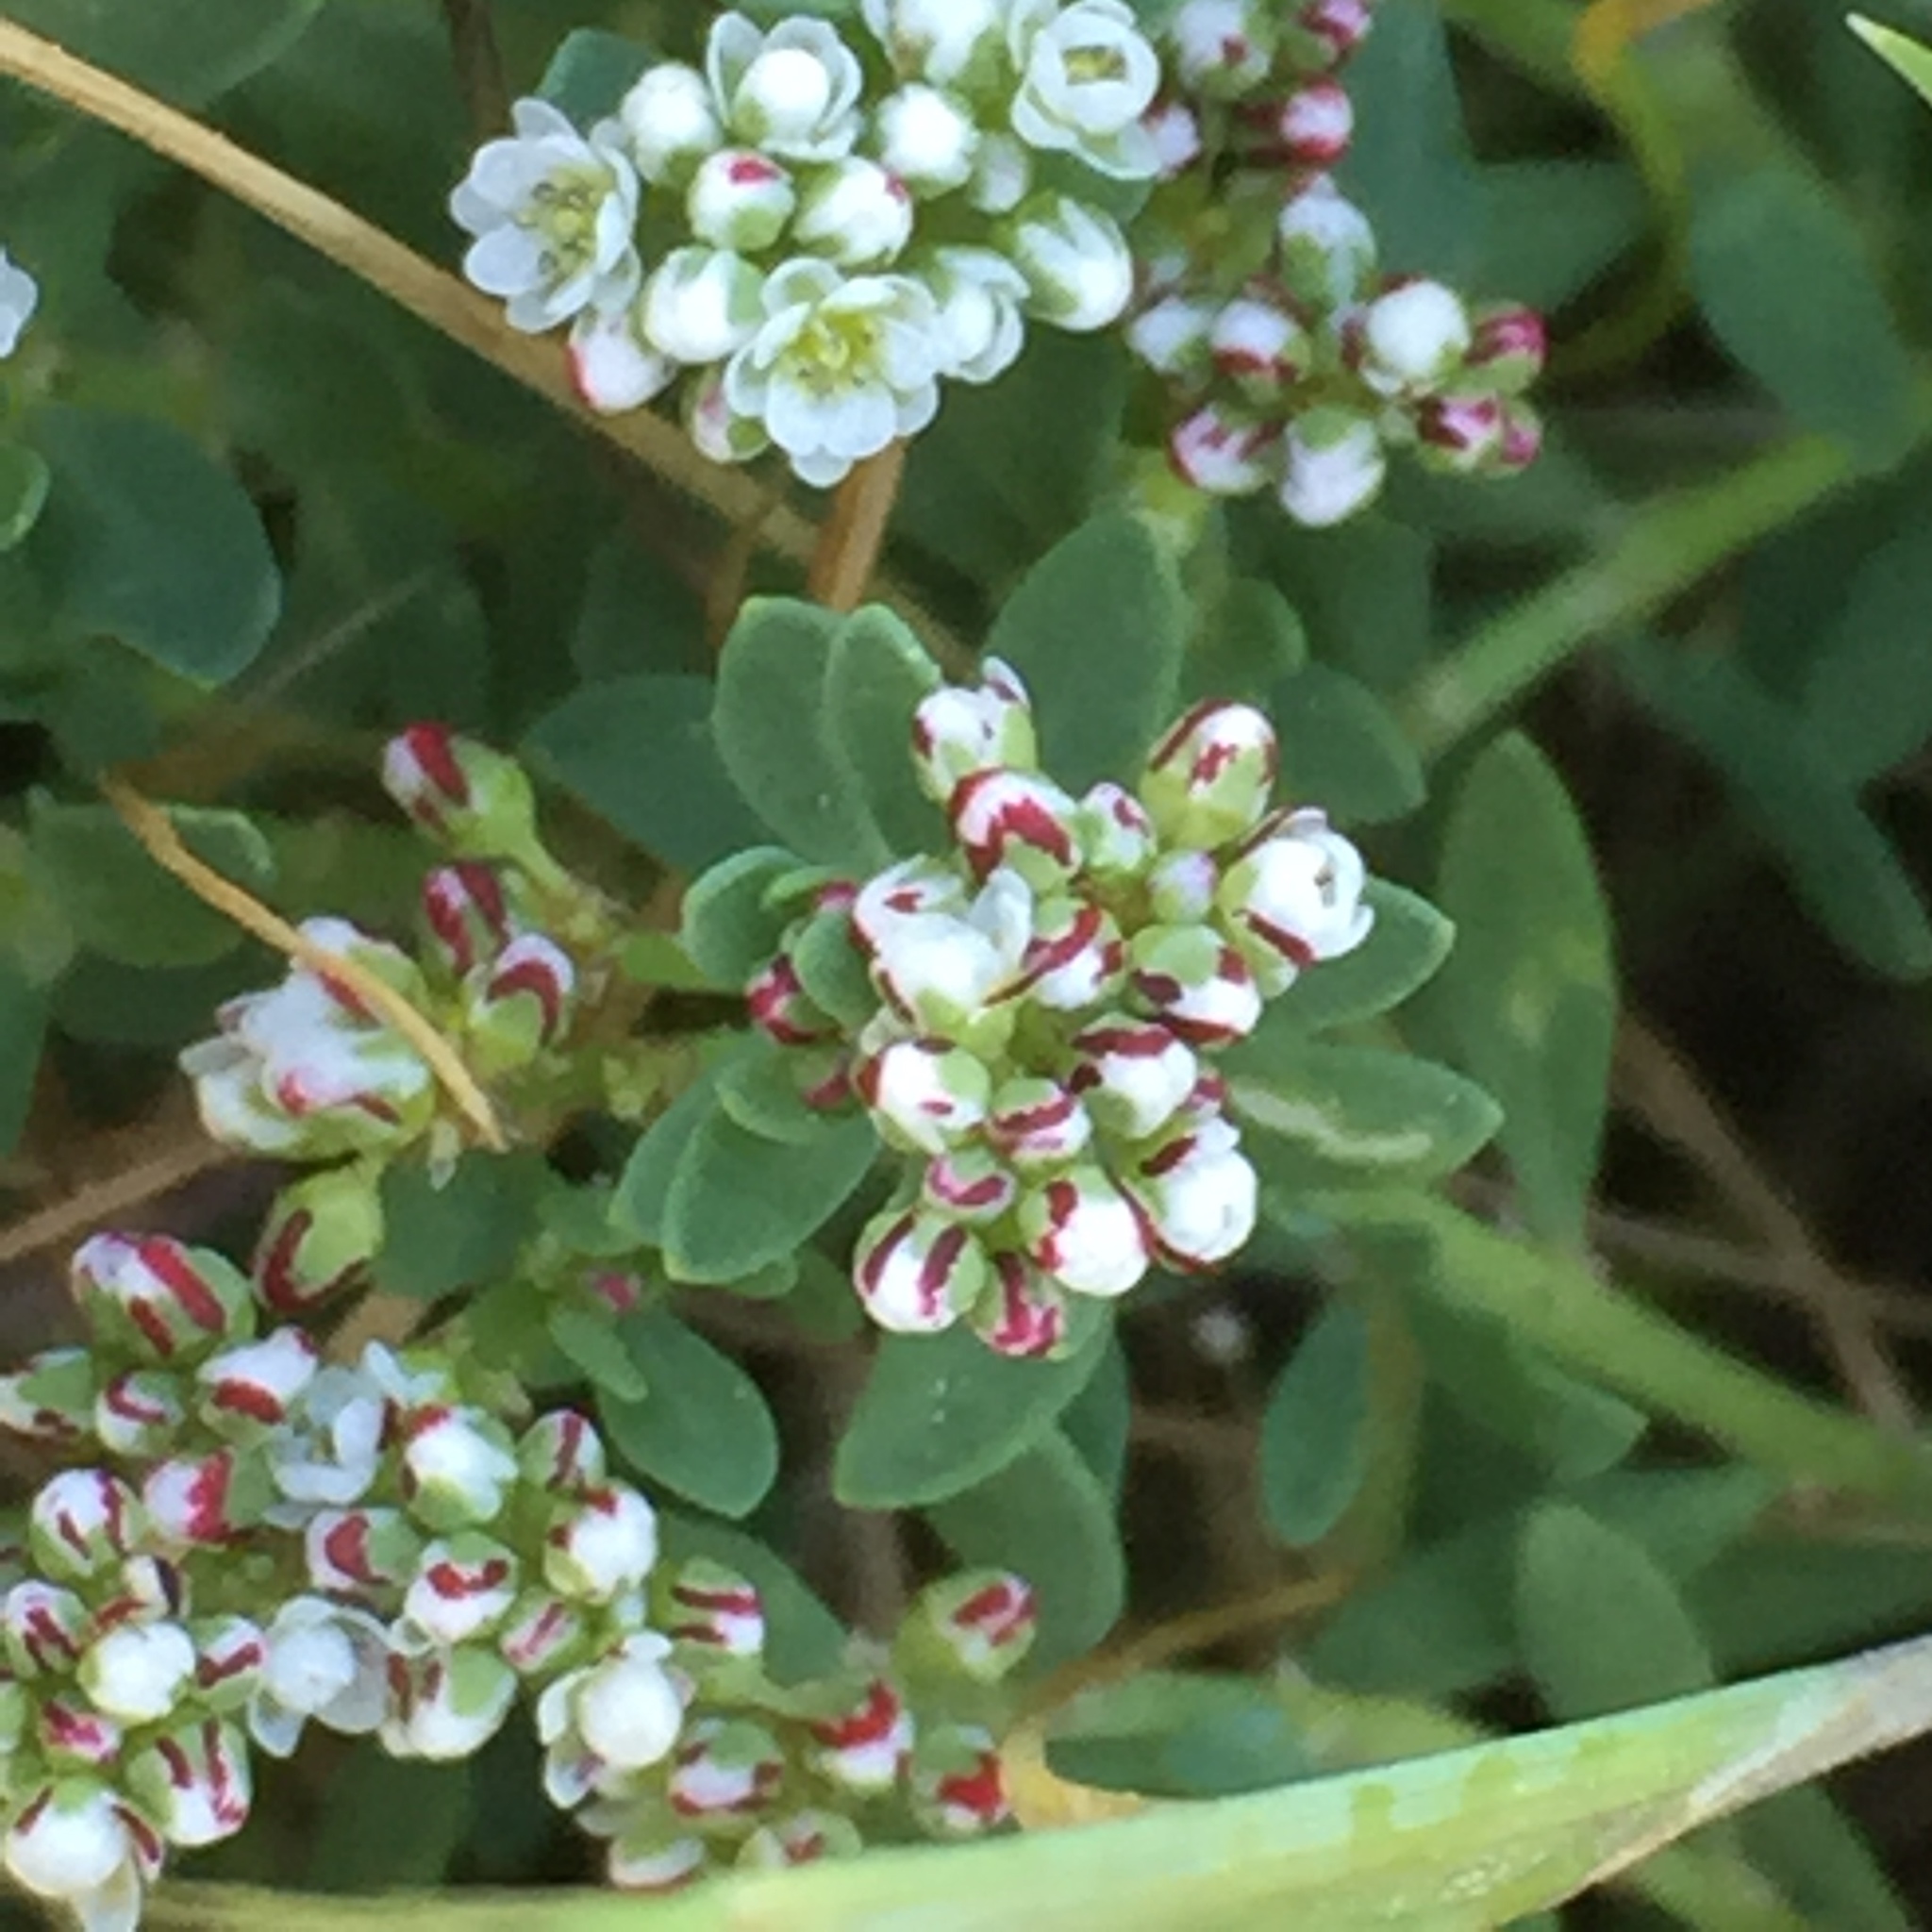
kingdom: Plantae
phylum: Tracheophyta
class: Magnoliopsida
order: Caryophyllales
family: Caryophyllaceae
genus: Corrigiola
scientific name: Corrigiola litoralis
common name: Strapwort
